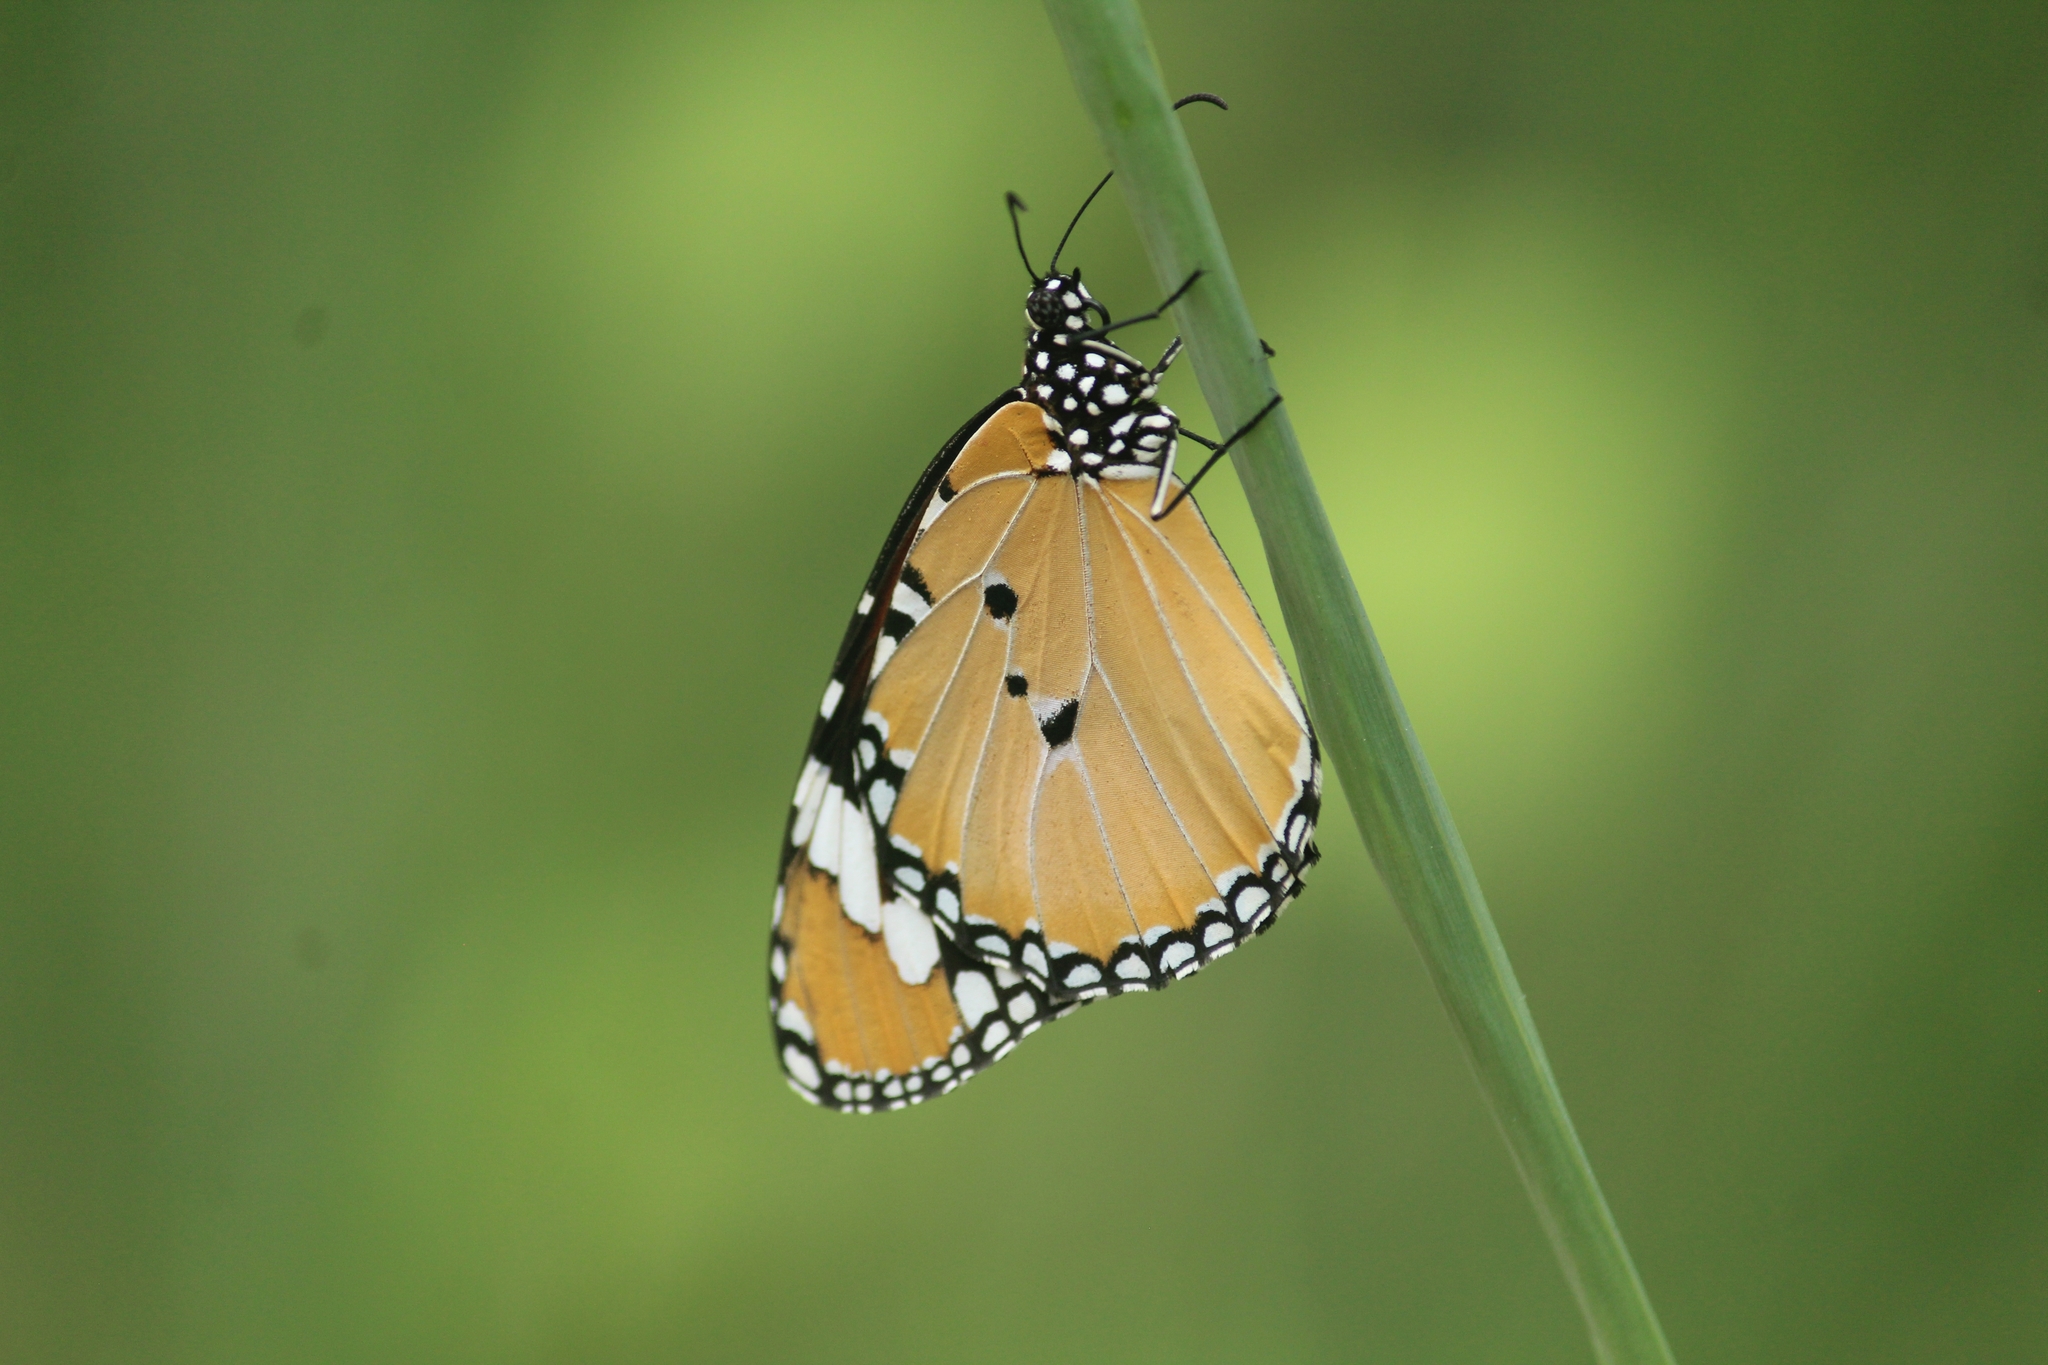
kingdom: Animalia
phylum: Arthropoda
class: Insecta
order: Lepidoptera
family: Nymphalidae
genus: Danaus
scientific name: Danaus chrysippus
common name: Plain tiger
